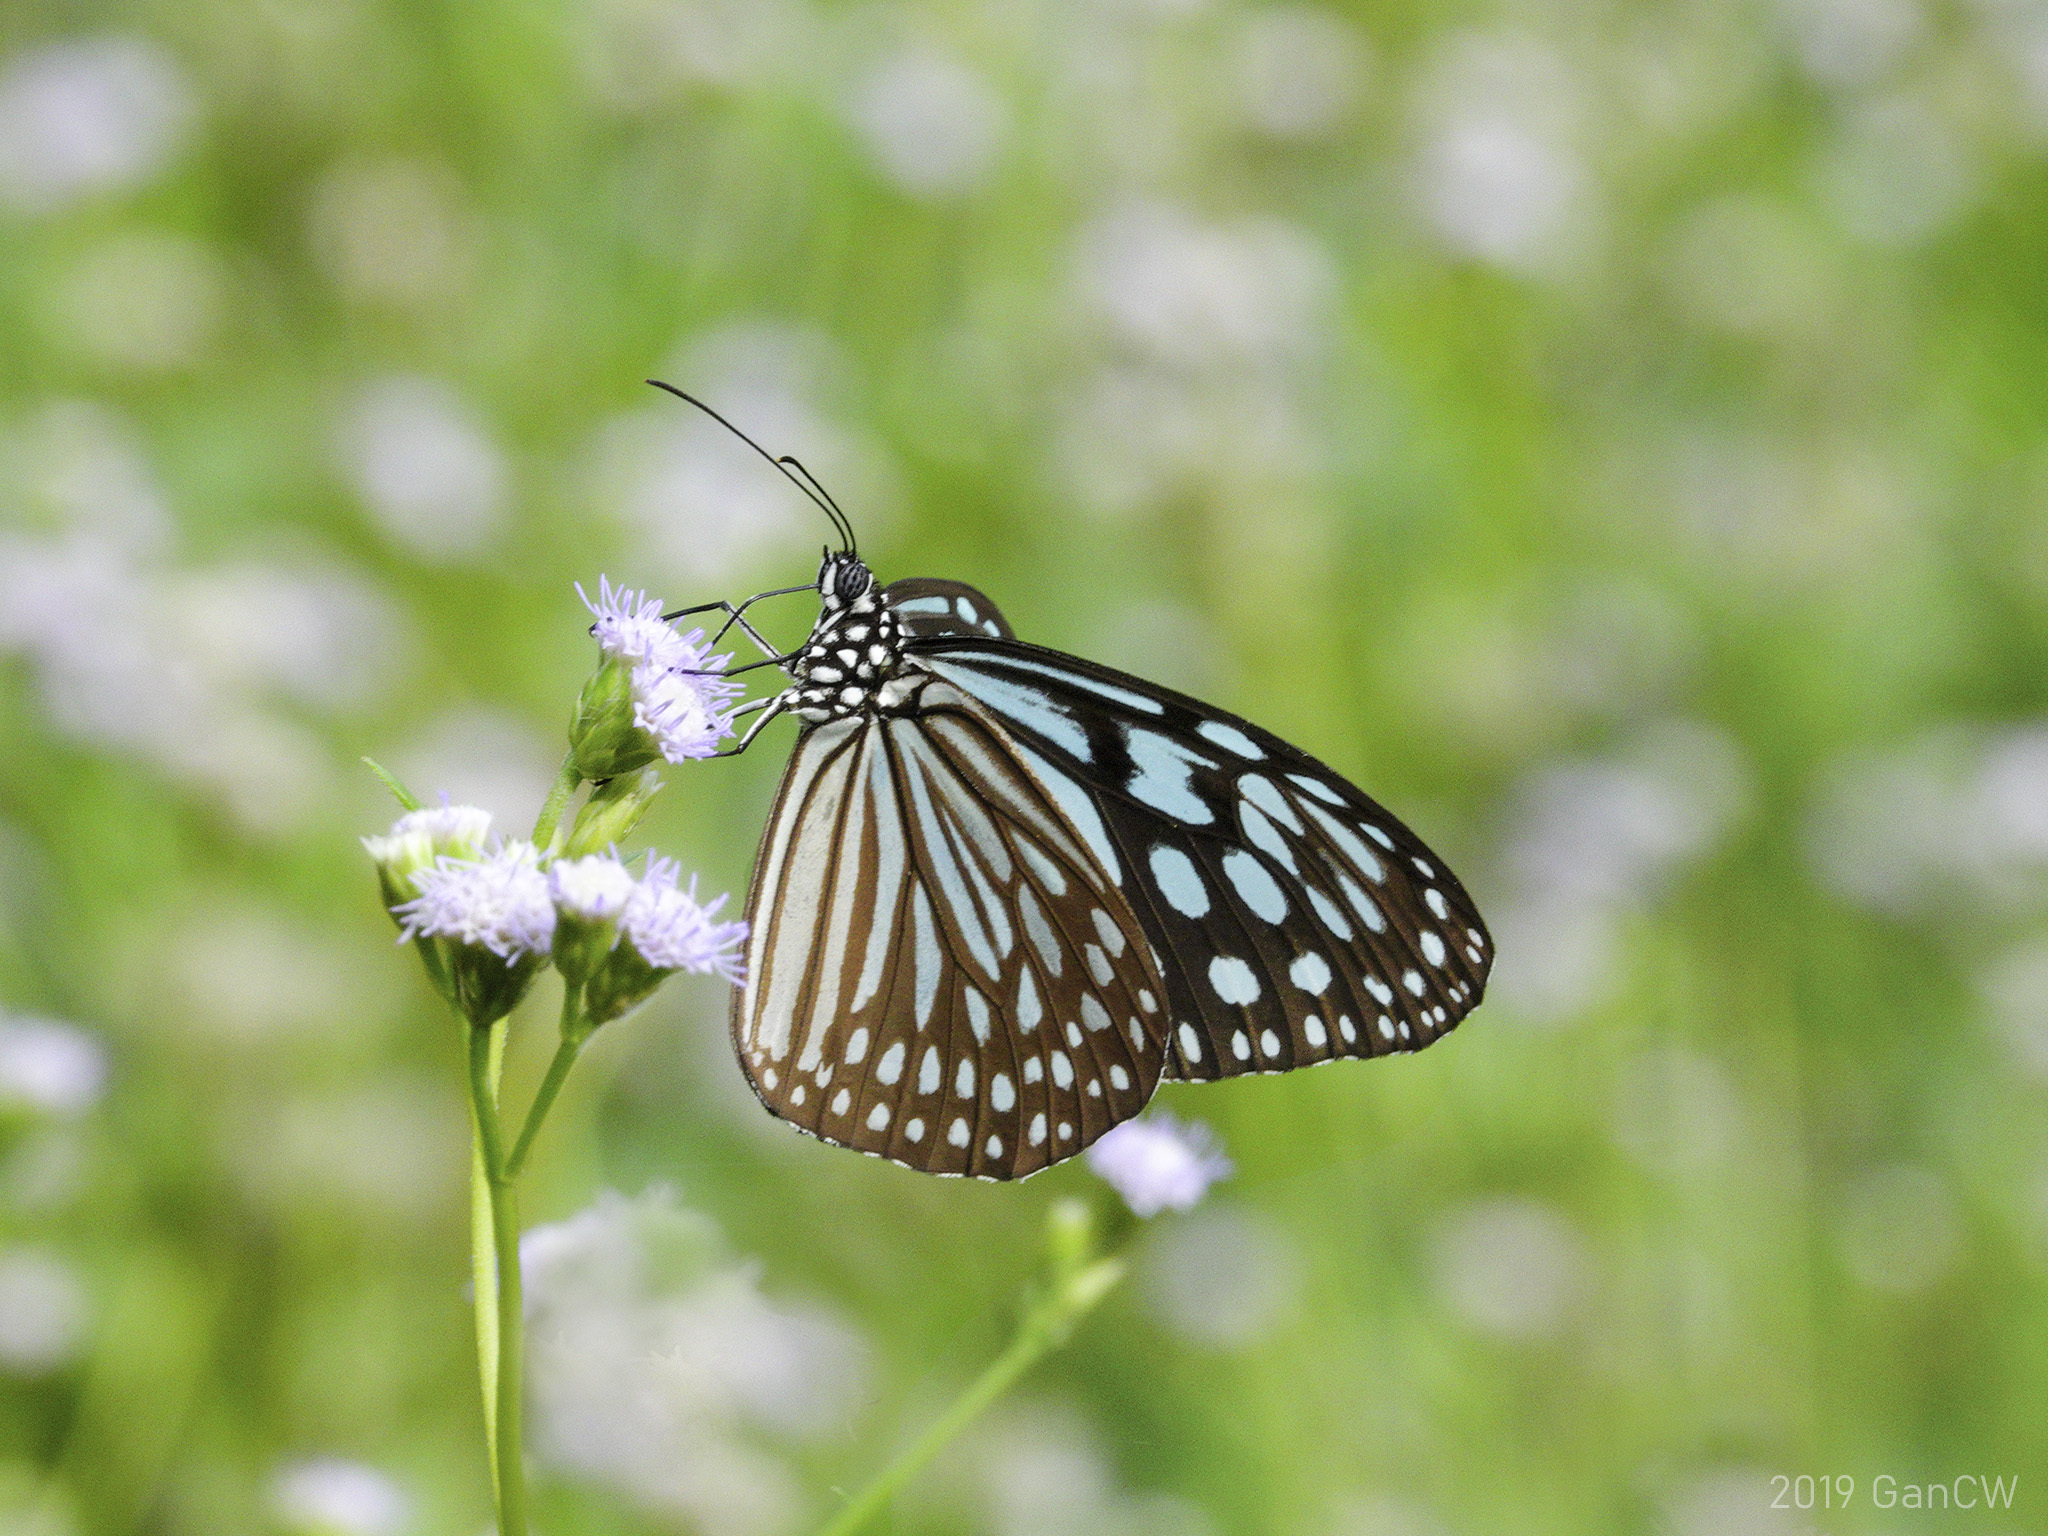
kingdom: Animalia
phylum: Arthropoda
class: Insecta
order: Lepidoptera
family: Nymphalidae
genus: Ideopsis
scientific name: Ideopsis similis
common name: Ceylon blue glassy tiger
